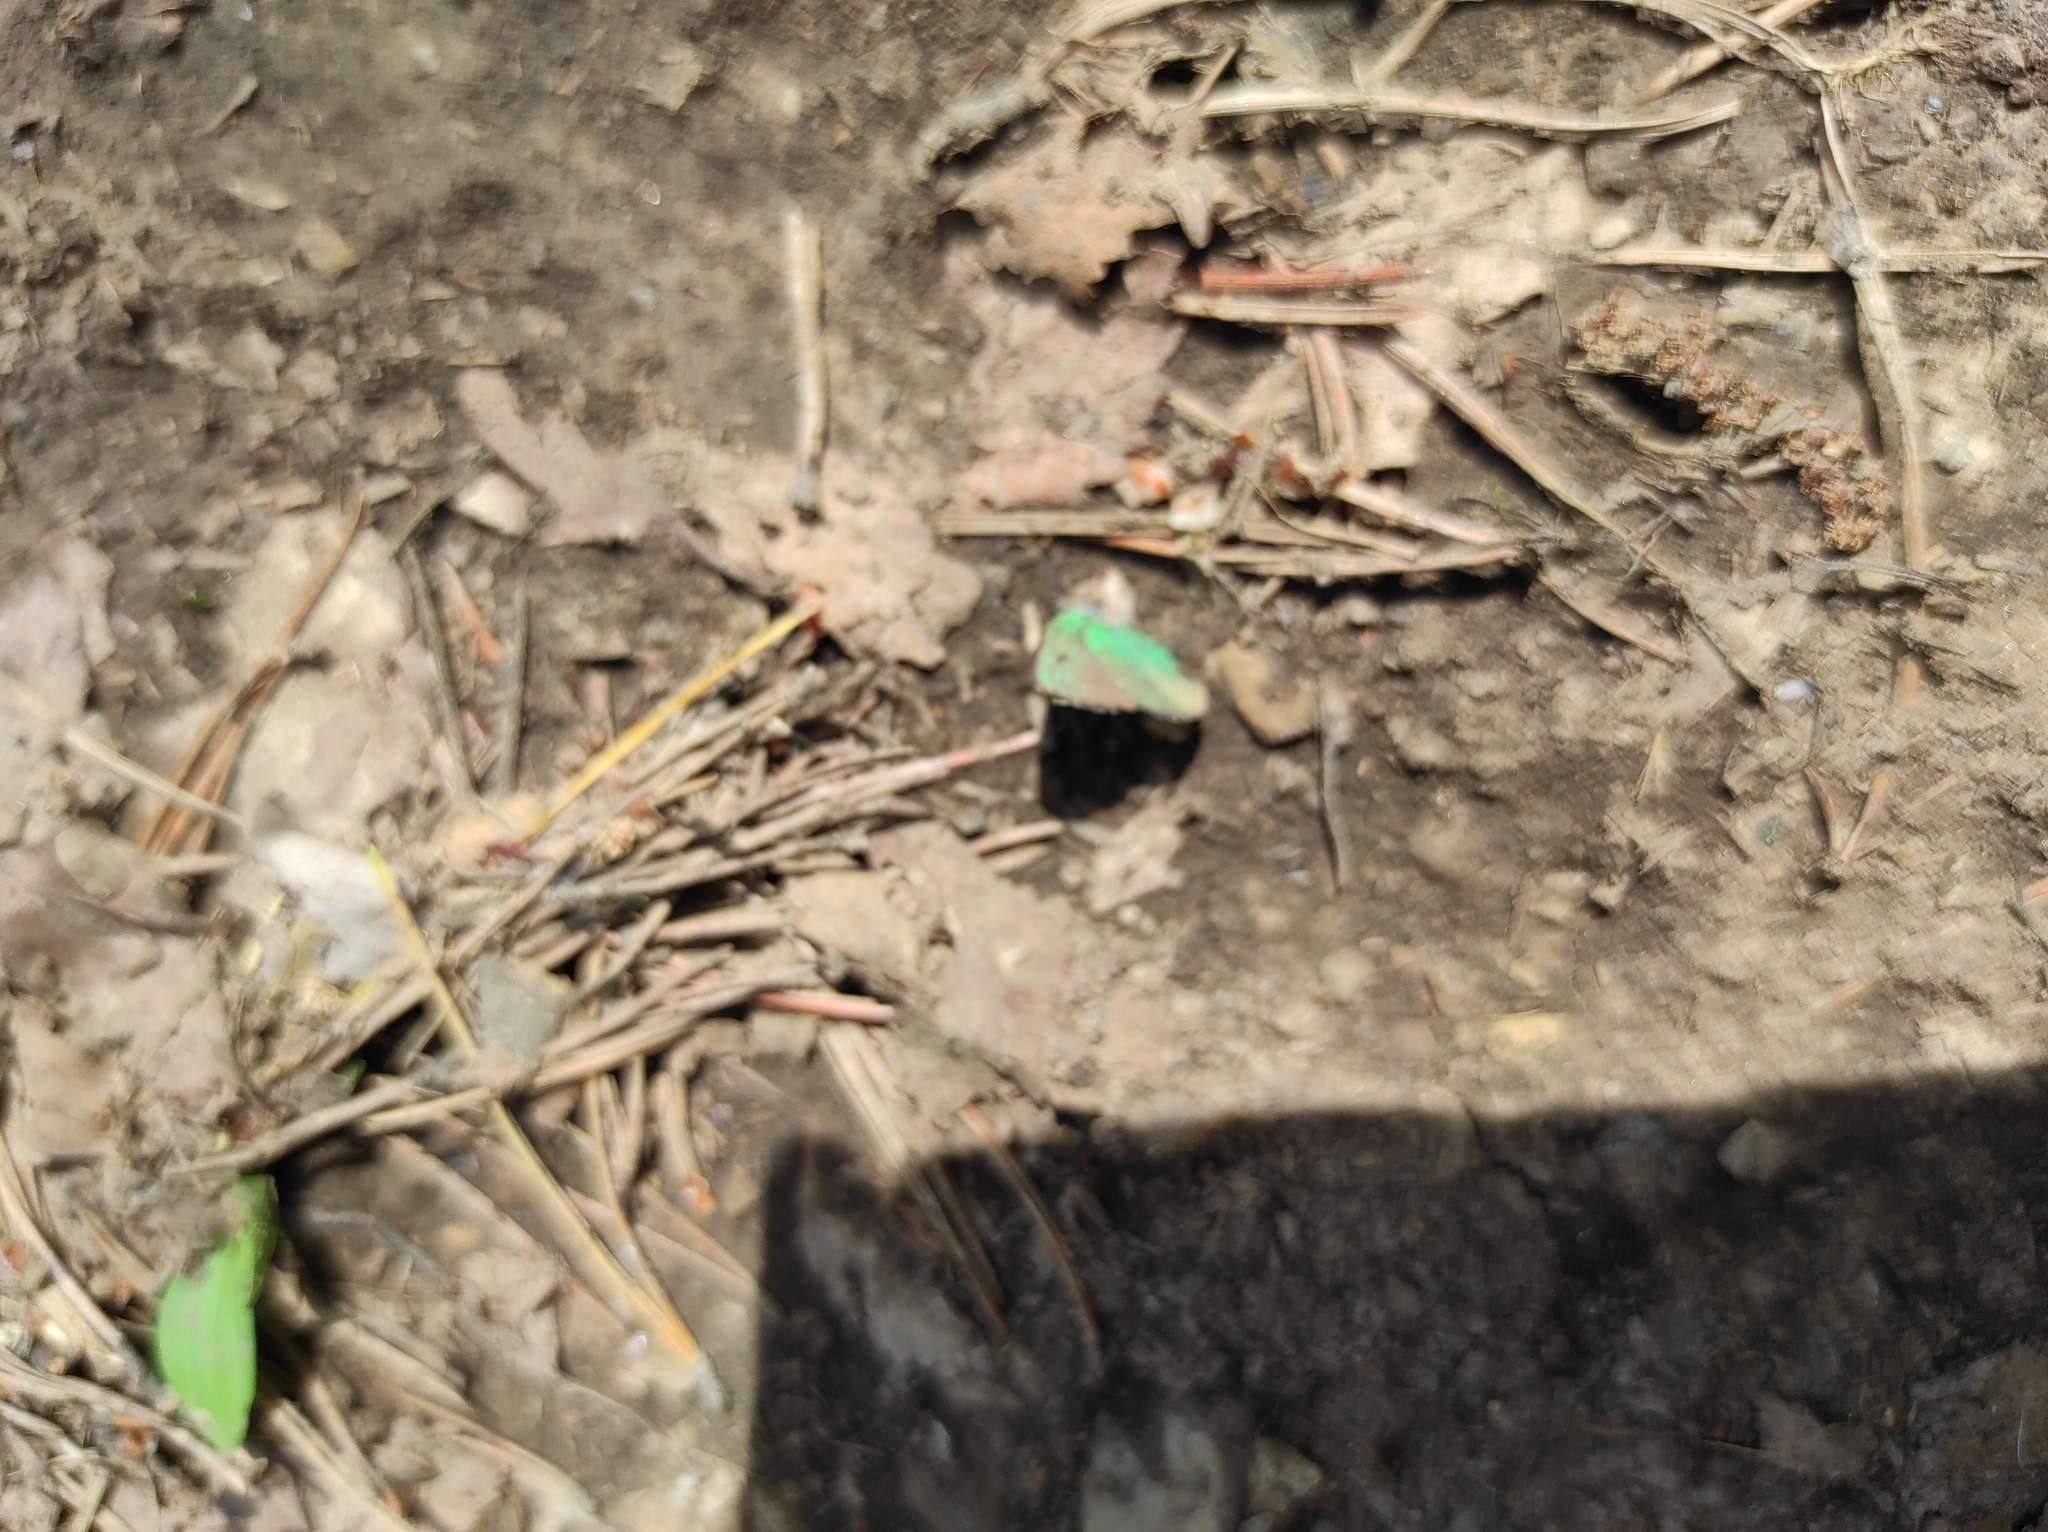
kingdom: Animalia
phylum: Arthropoda
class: Insecta
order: Lepidoptera
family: Lycaenidae
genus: Callophrys
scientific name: Callophrys rubi
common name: Green hairstreak
